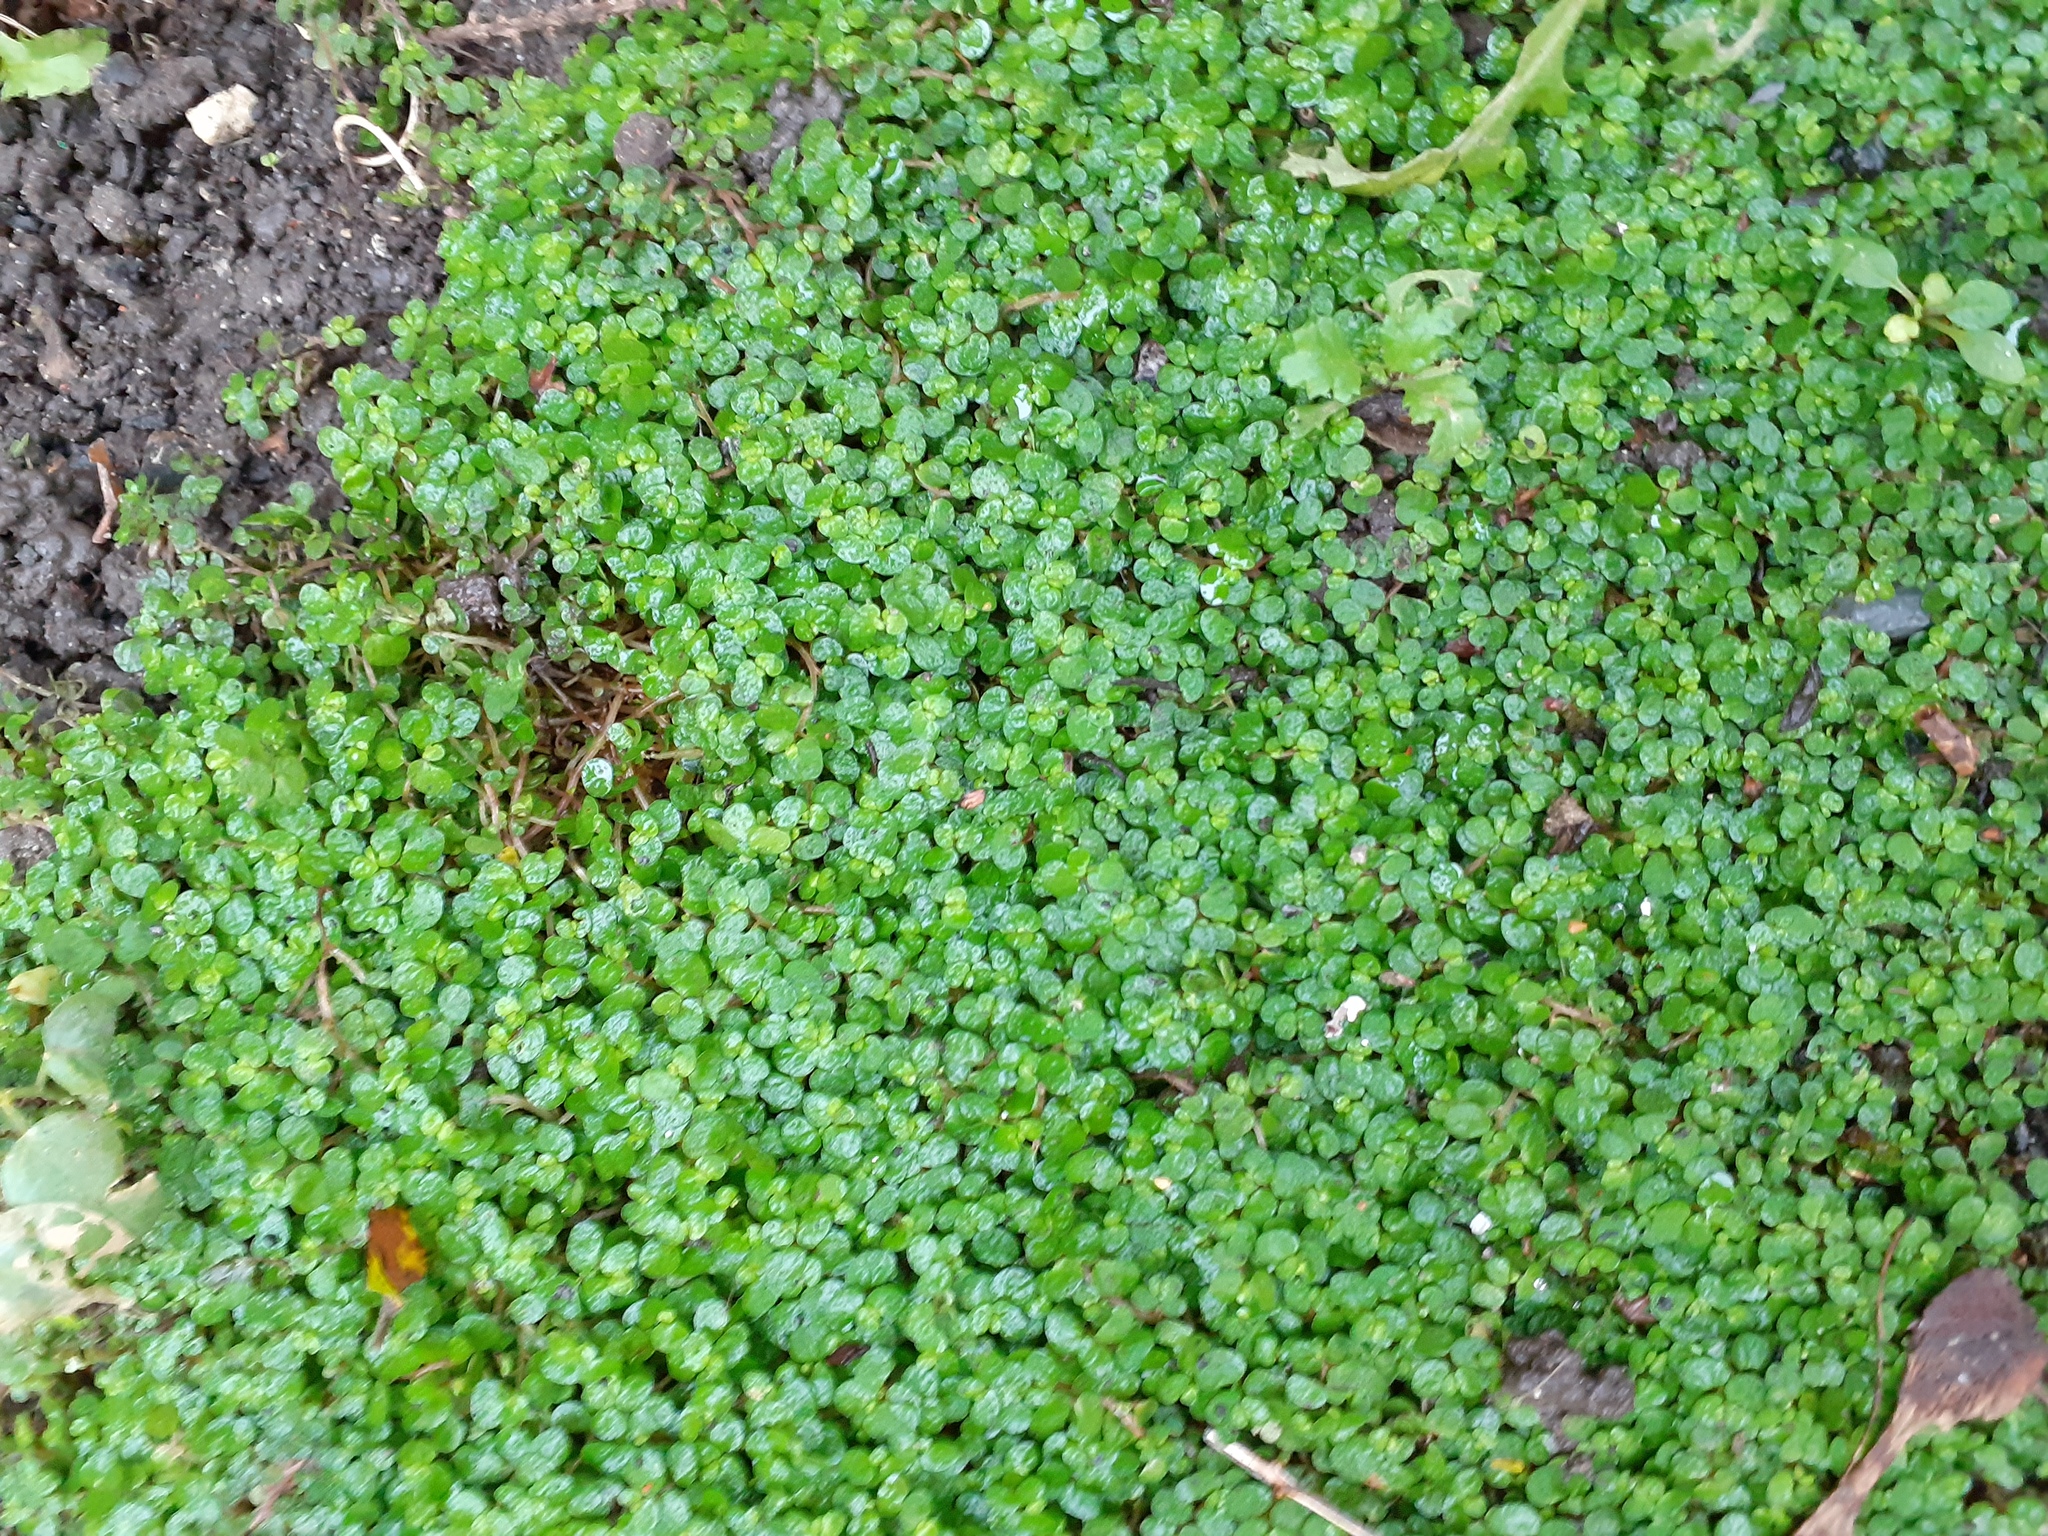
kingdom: Plantae
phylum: Tracheophyta
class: Magnoliopsida
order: Rosales
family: Urticaceae
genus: Soleirolia
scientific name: Soleirolia soleirolii
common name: Mind-your-own-business
